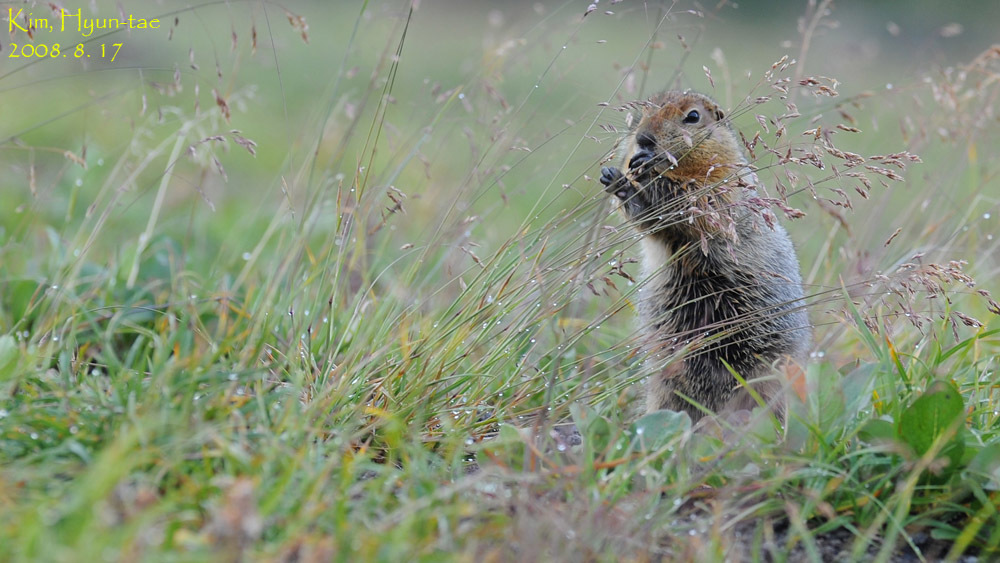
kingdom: Animalia
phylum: Chordata
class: Mammalia
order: Rodentia
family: Sciuridae
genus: Urocitellus
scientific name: Urocitellus parryii
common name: Arctic ground squirrel
